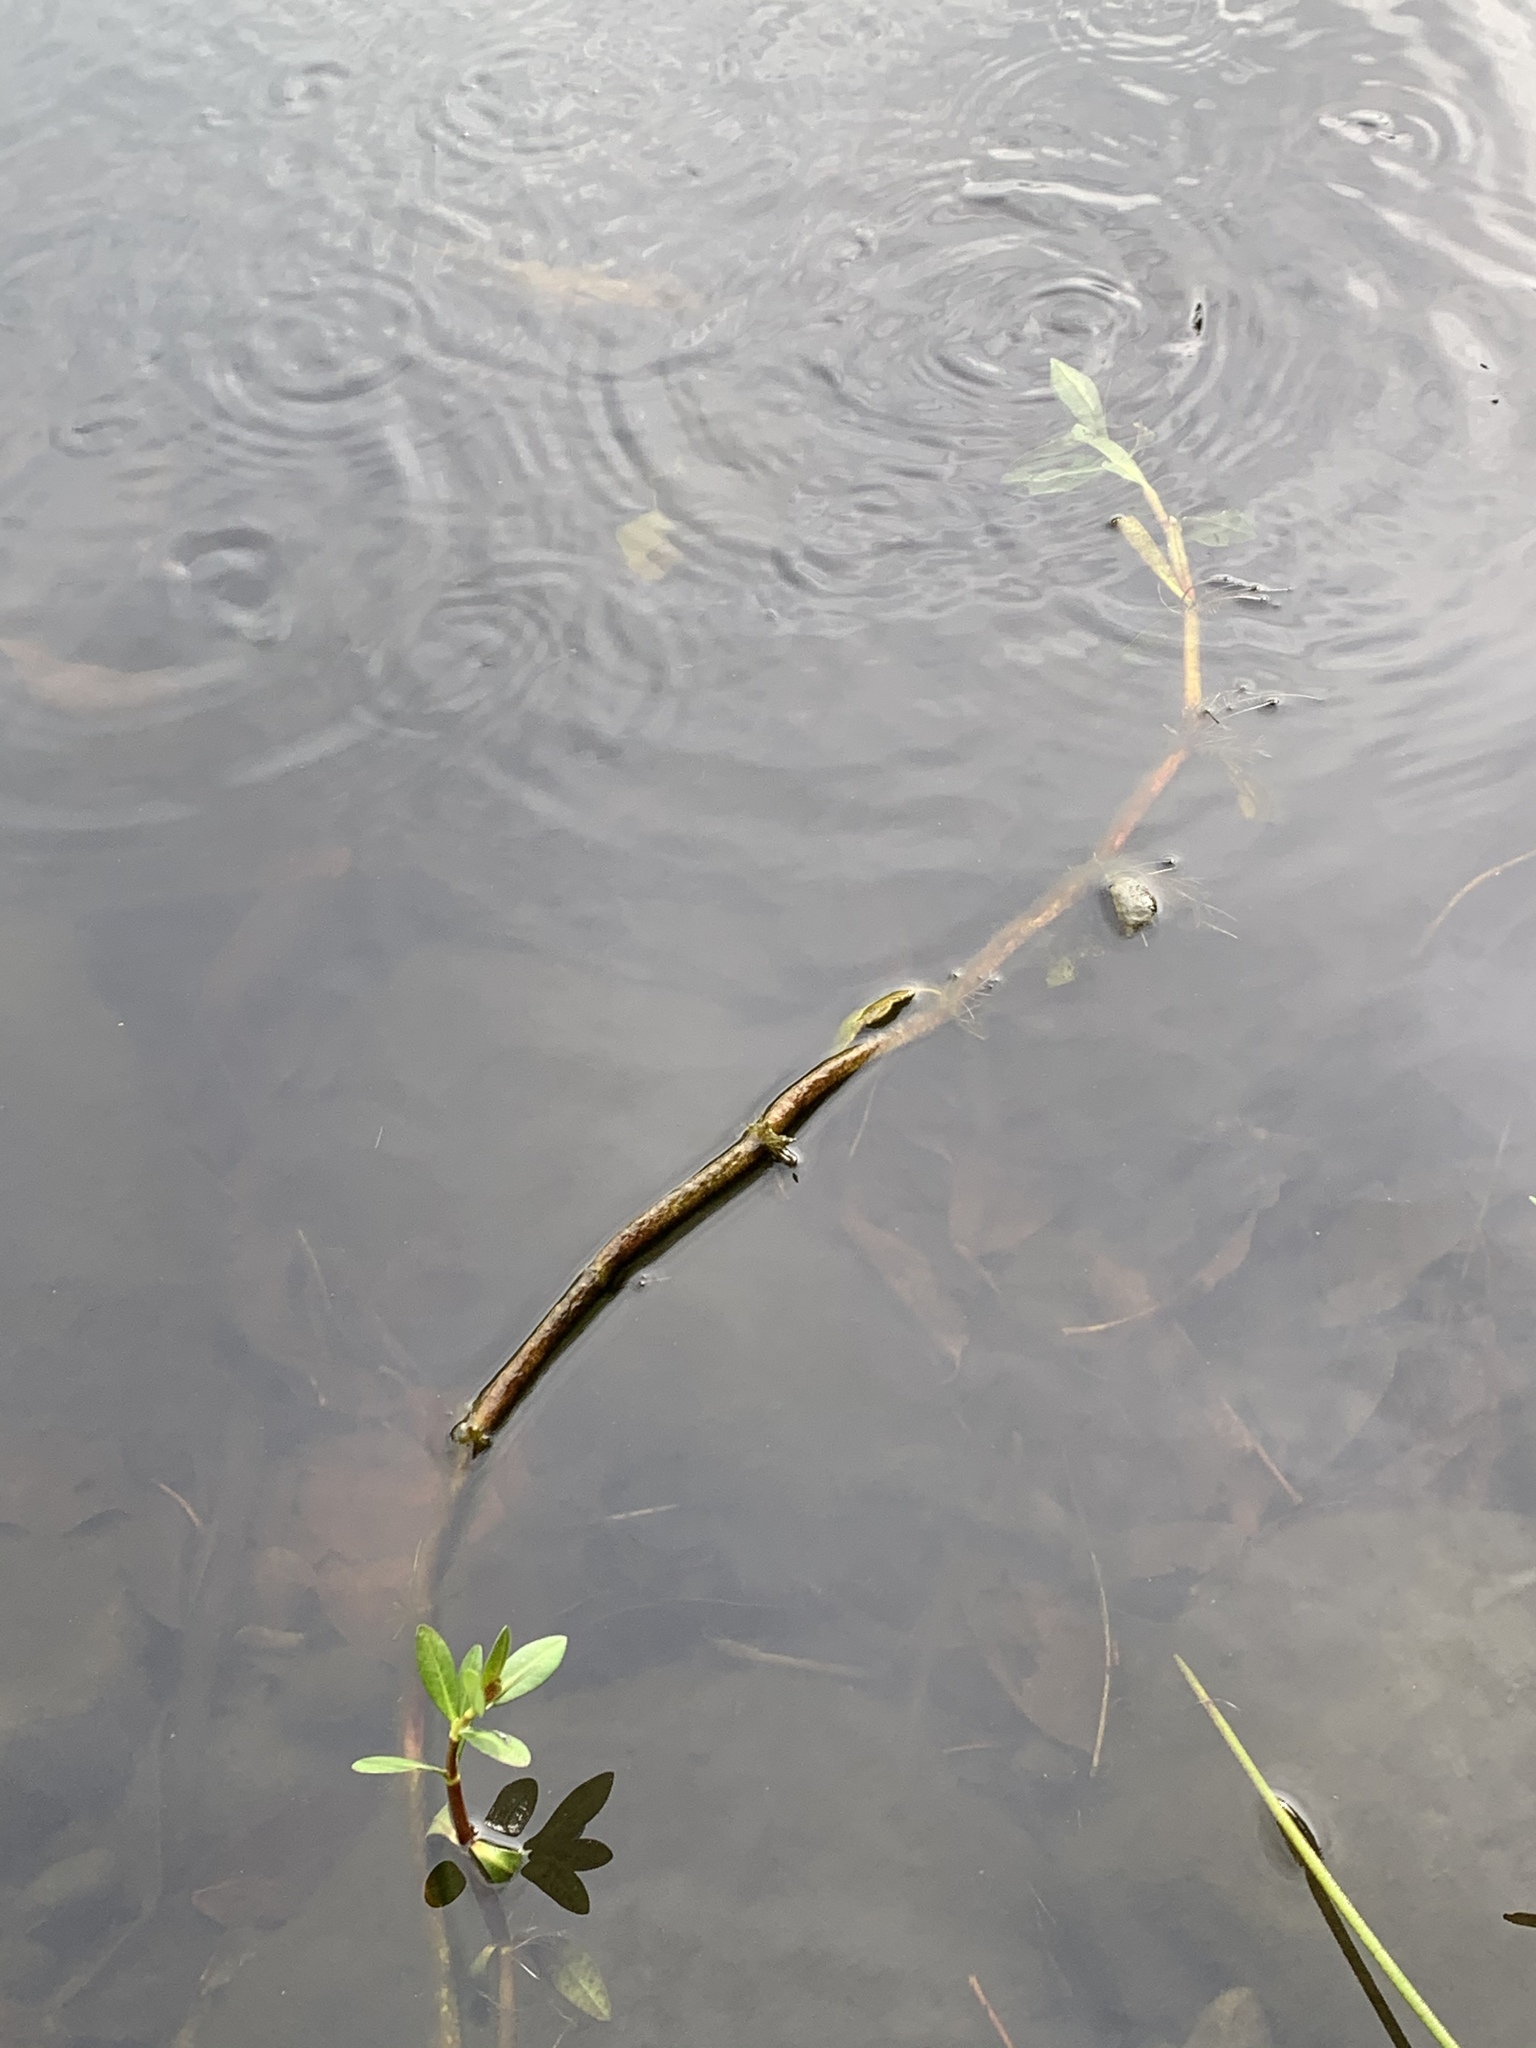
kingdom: Plantae
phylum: Tracheophyta
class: Magnoliopsida
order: Caryophyllales
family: Amaranthaceae
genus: Alternanthera
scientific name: Alternanthera philoxeroides
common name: Alligatorweed
